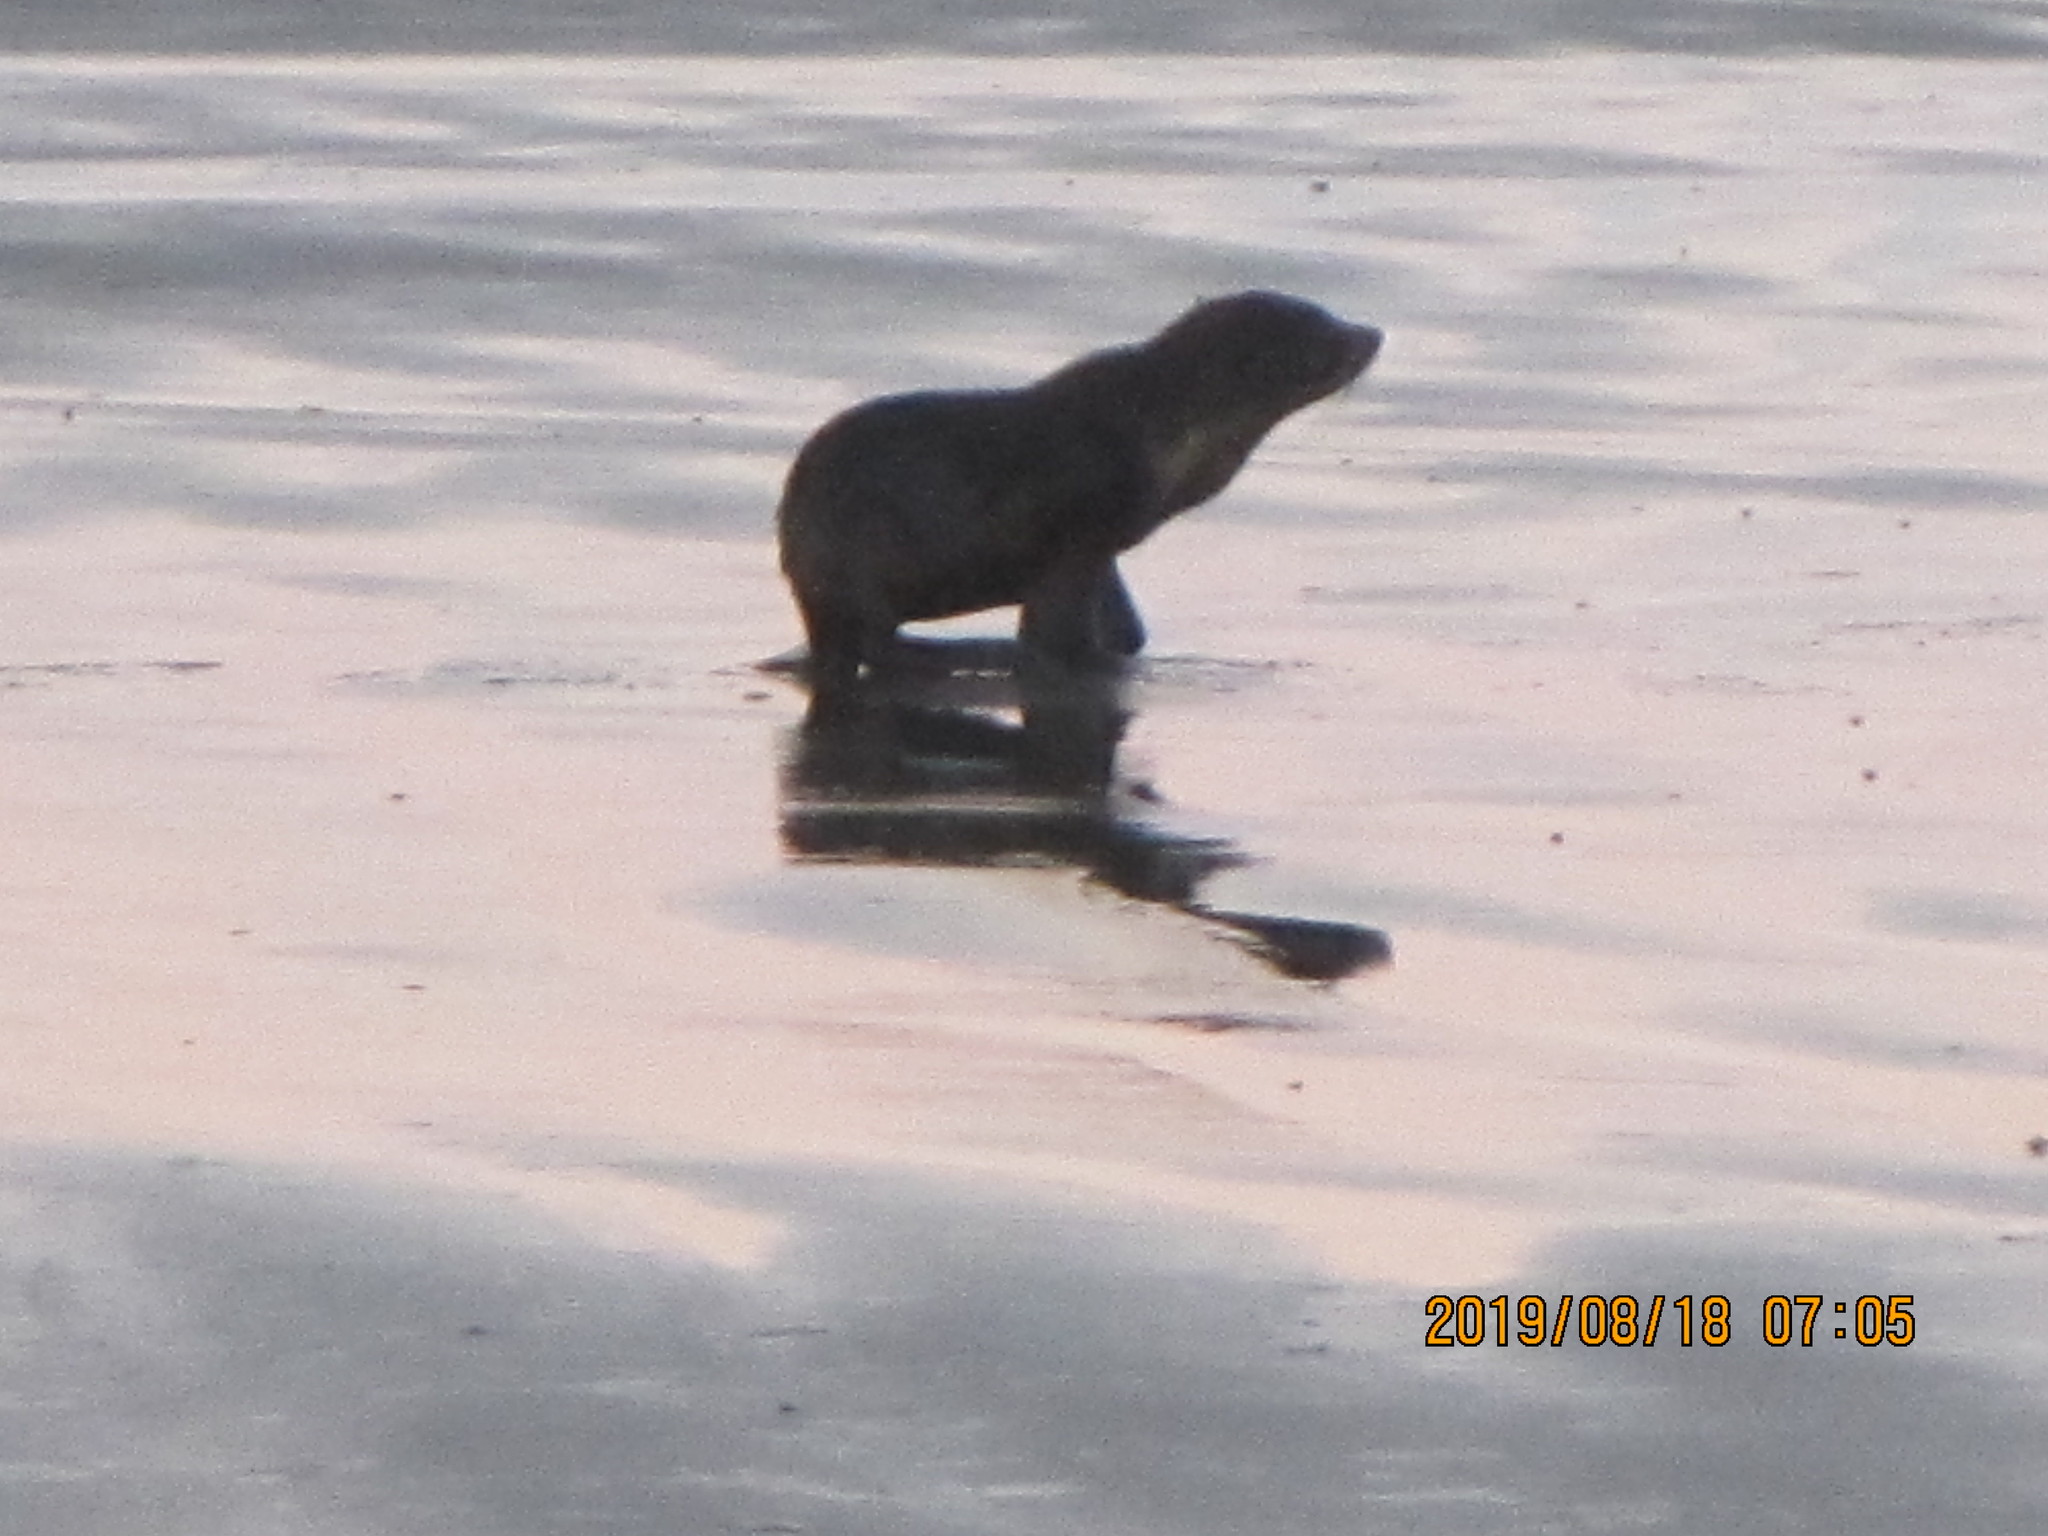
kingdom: Animalia
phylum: Chordata
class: Mammalia
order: Carnivora
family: Otariidae
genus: Arctocephalus
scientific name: Arctocephalus forsteri
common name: New zealand fur seal
